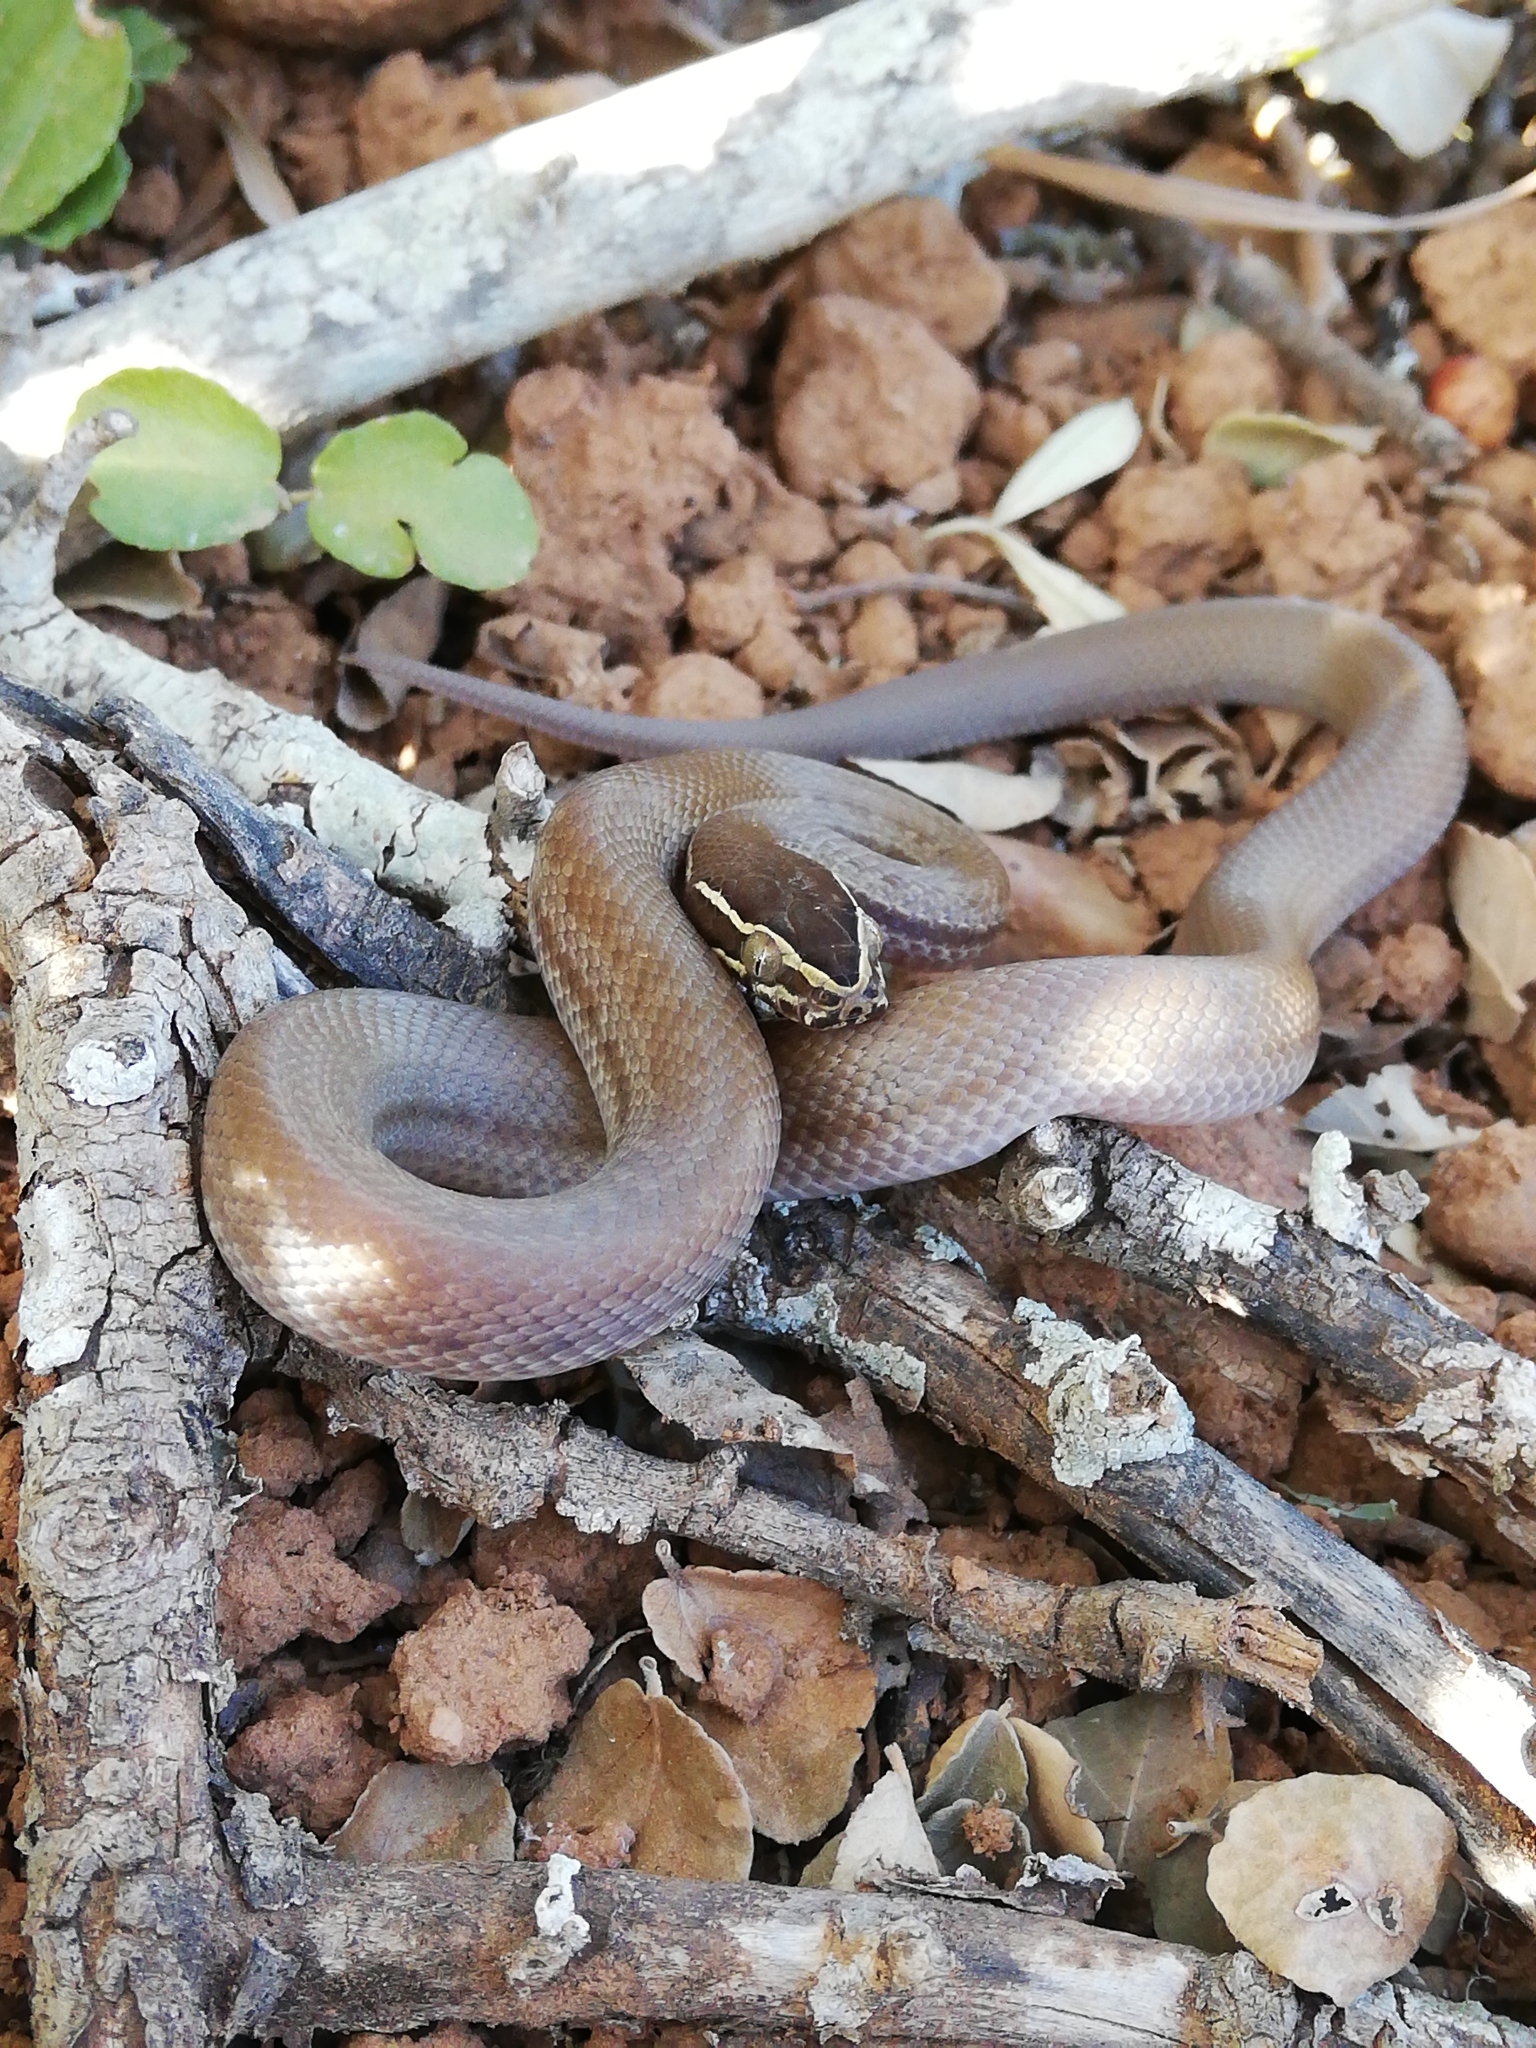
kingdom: Animalia
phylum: Chordata
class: Squamata
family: Lamprophiidae
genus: Boaedon
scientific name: Boaedon capensis
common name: Brown house snake
